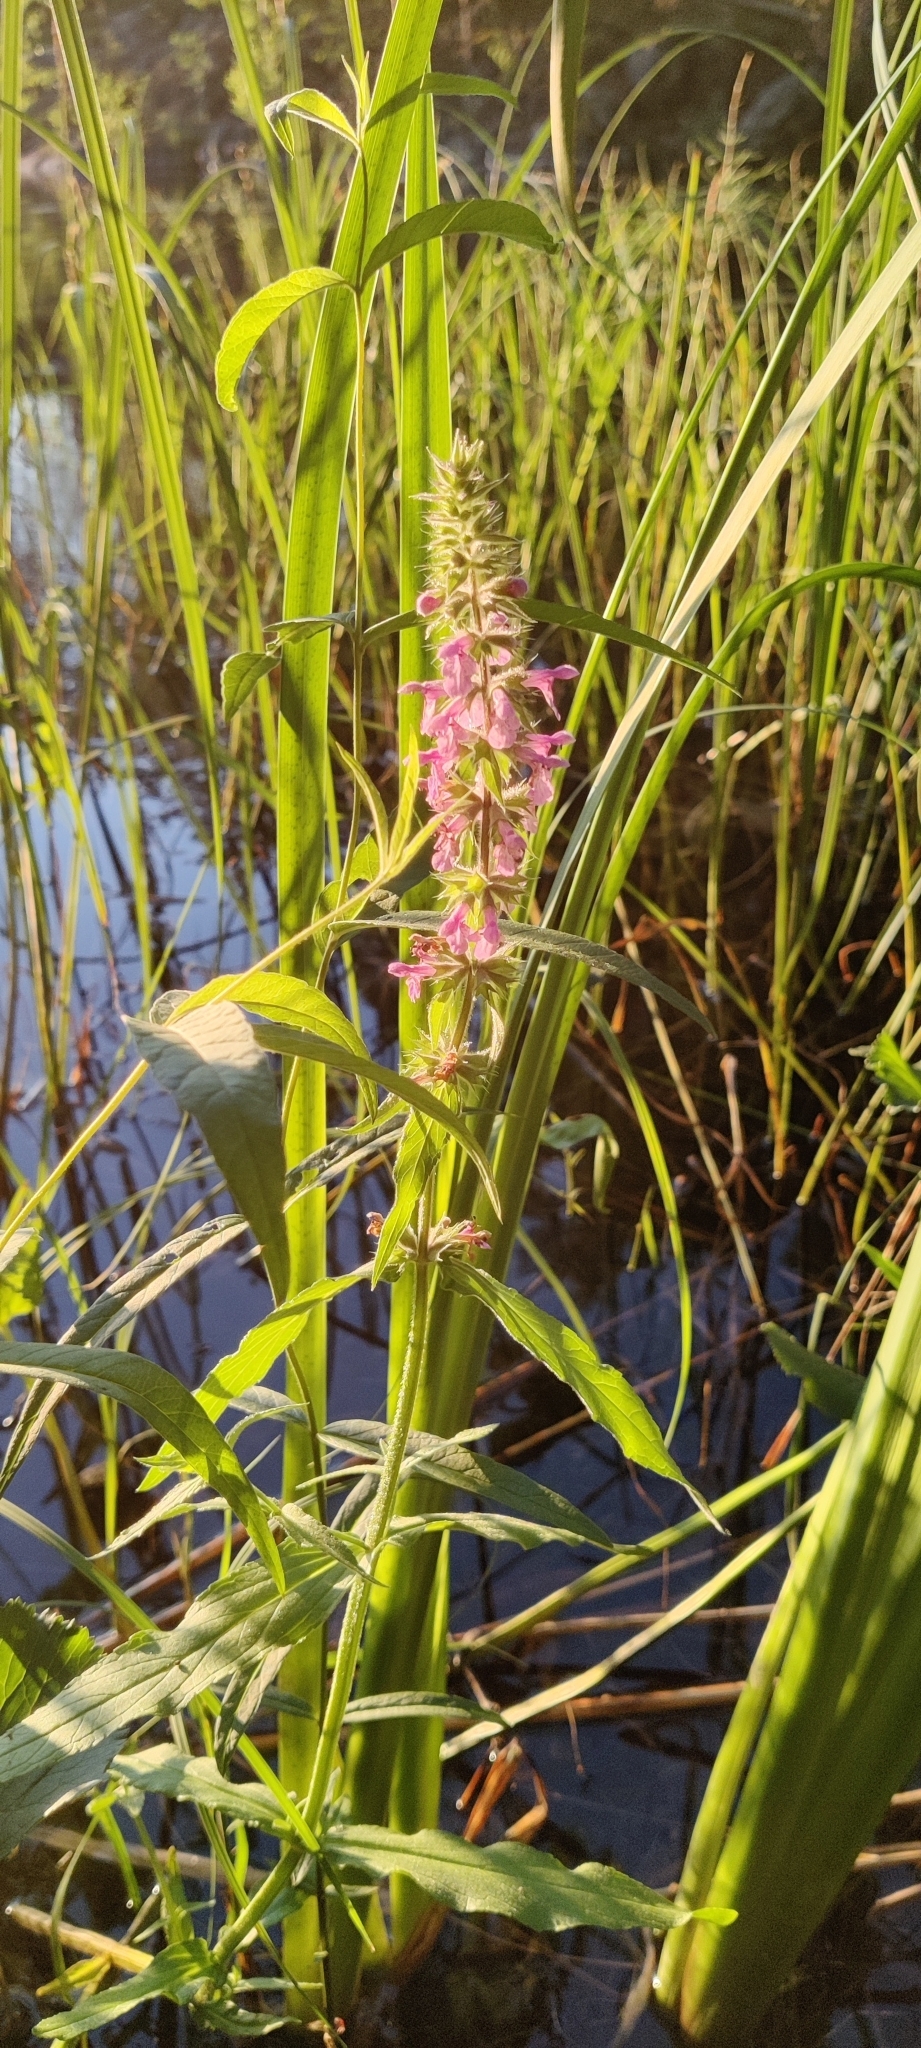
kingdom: Plantae
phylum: Tracheophyta
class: Magnoliopsida
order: Lamiales
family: Lamiaceae
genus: Stachys
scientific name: Stachys palustris
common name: Marsh woundwort
